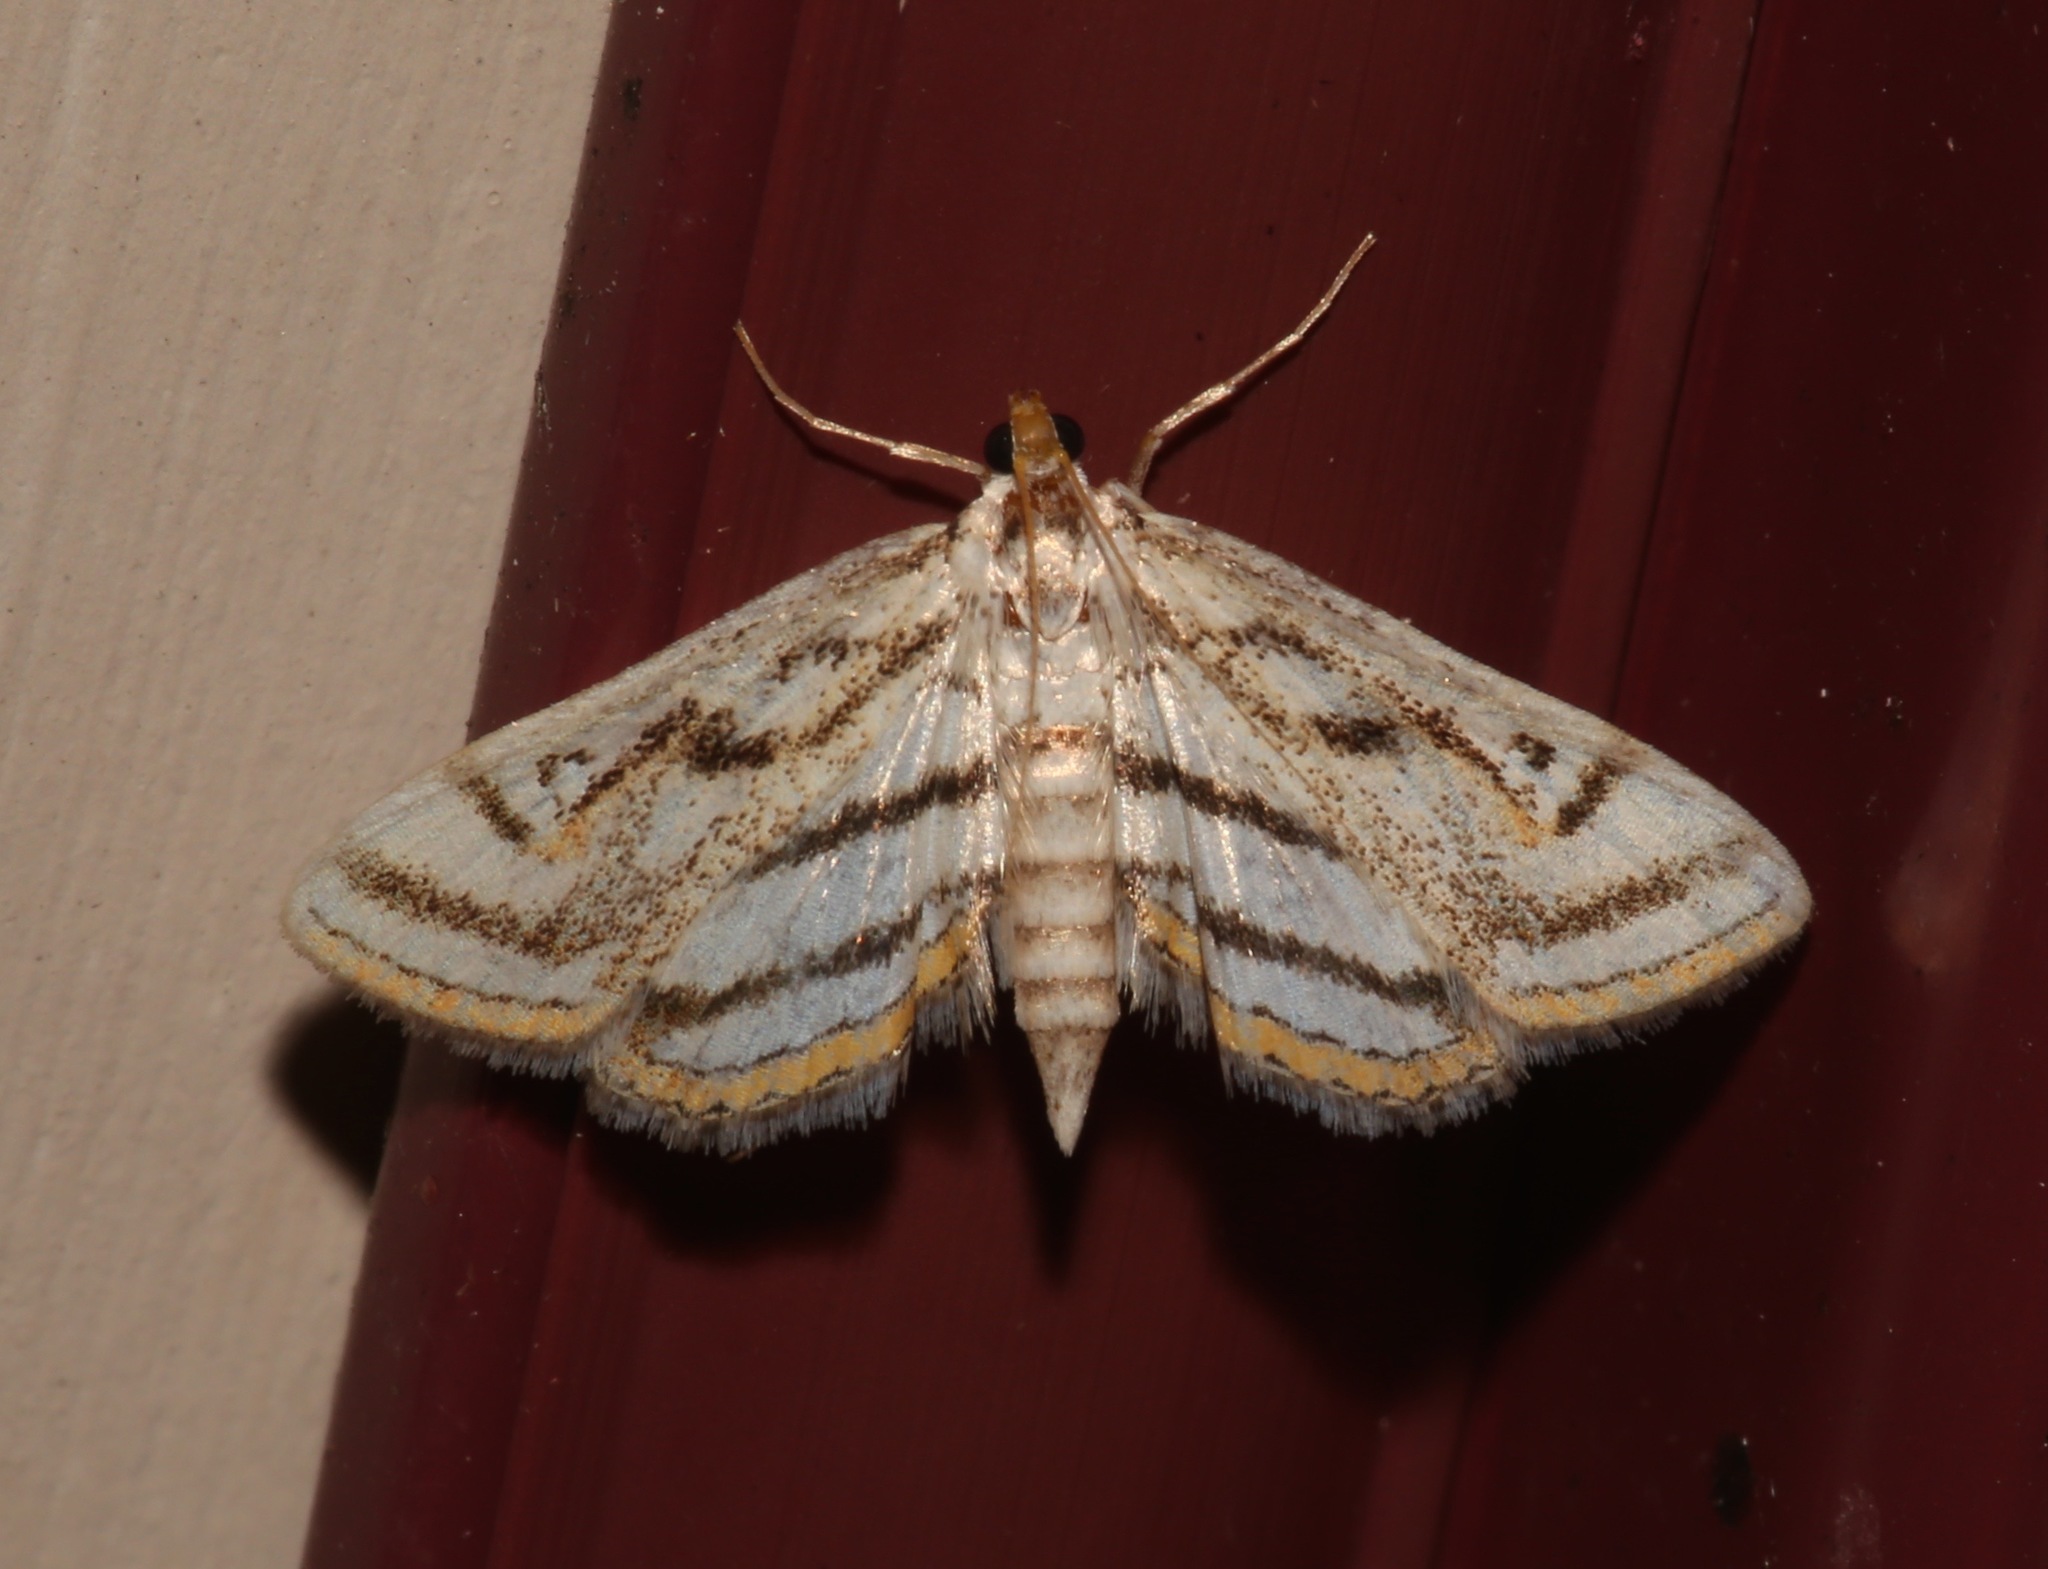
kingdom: Animalia
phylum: Arthropoda
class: Insecta
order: Lepidoptera
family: Crambidae
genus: Parapoynx
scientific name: Parapoynx badiusalis
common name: Chestnut-marked pondweed moth
